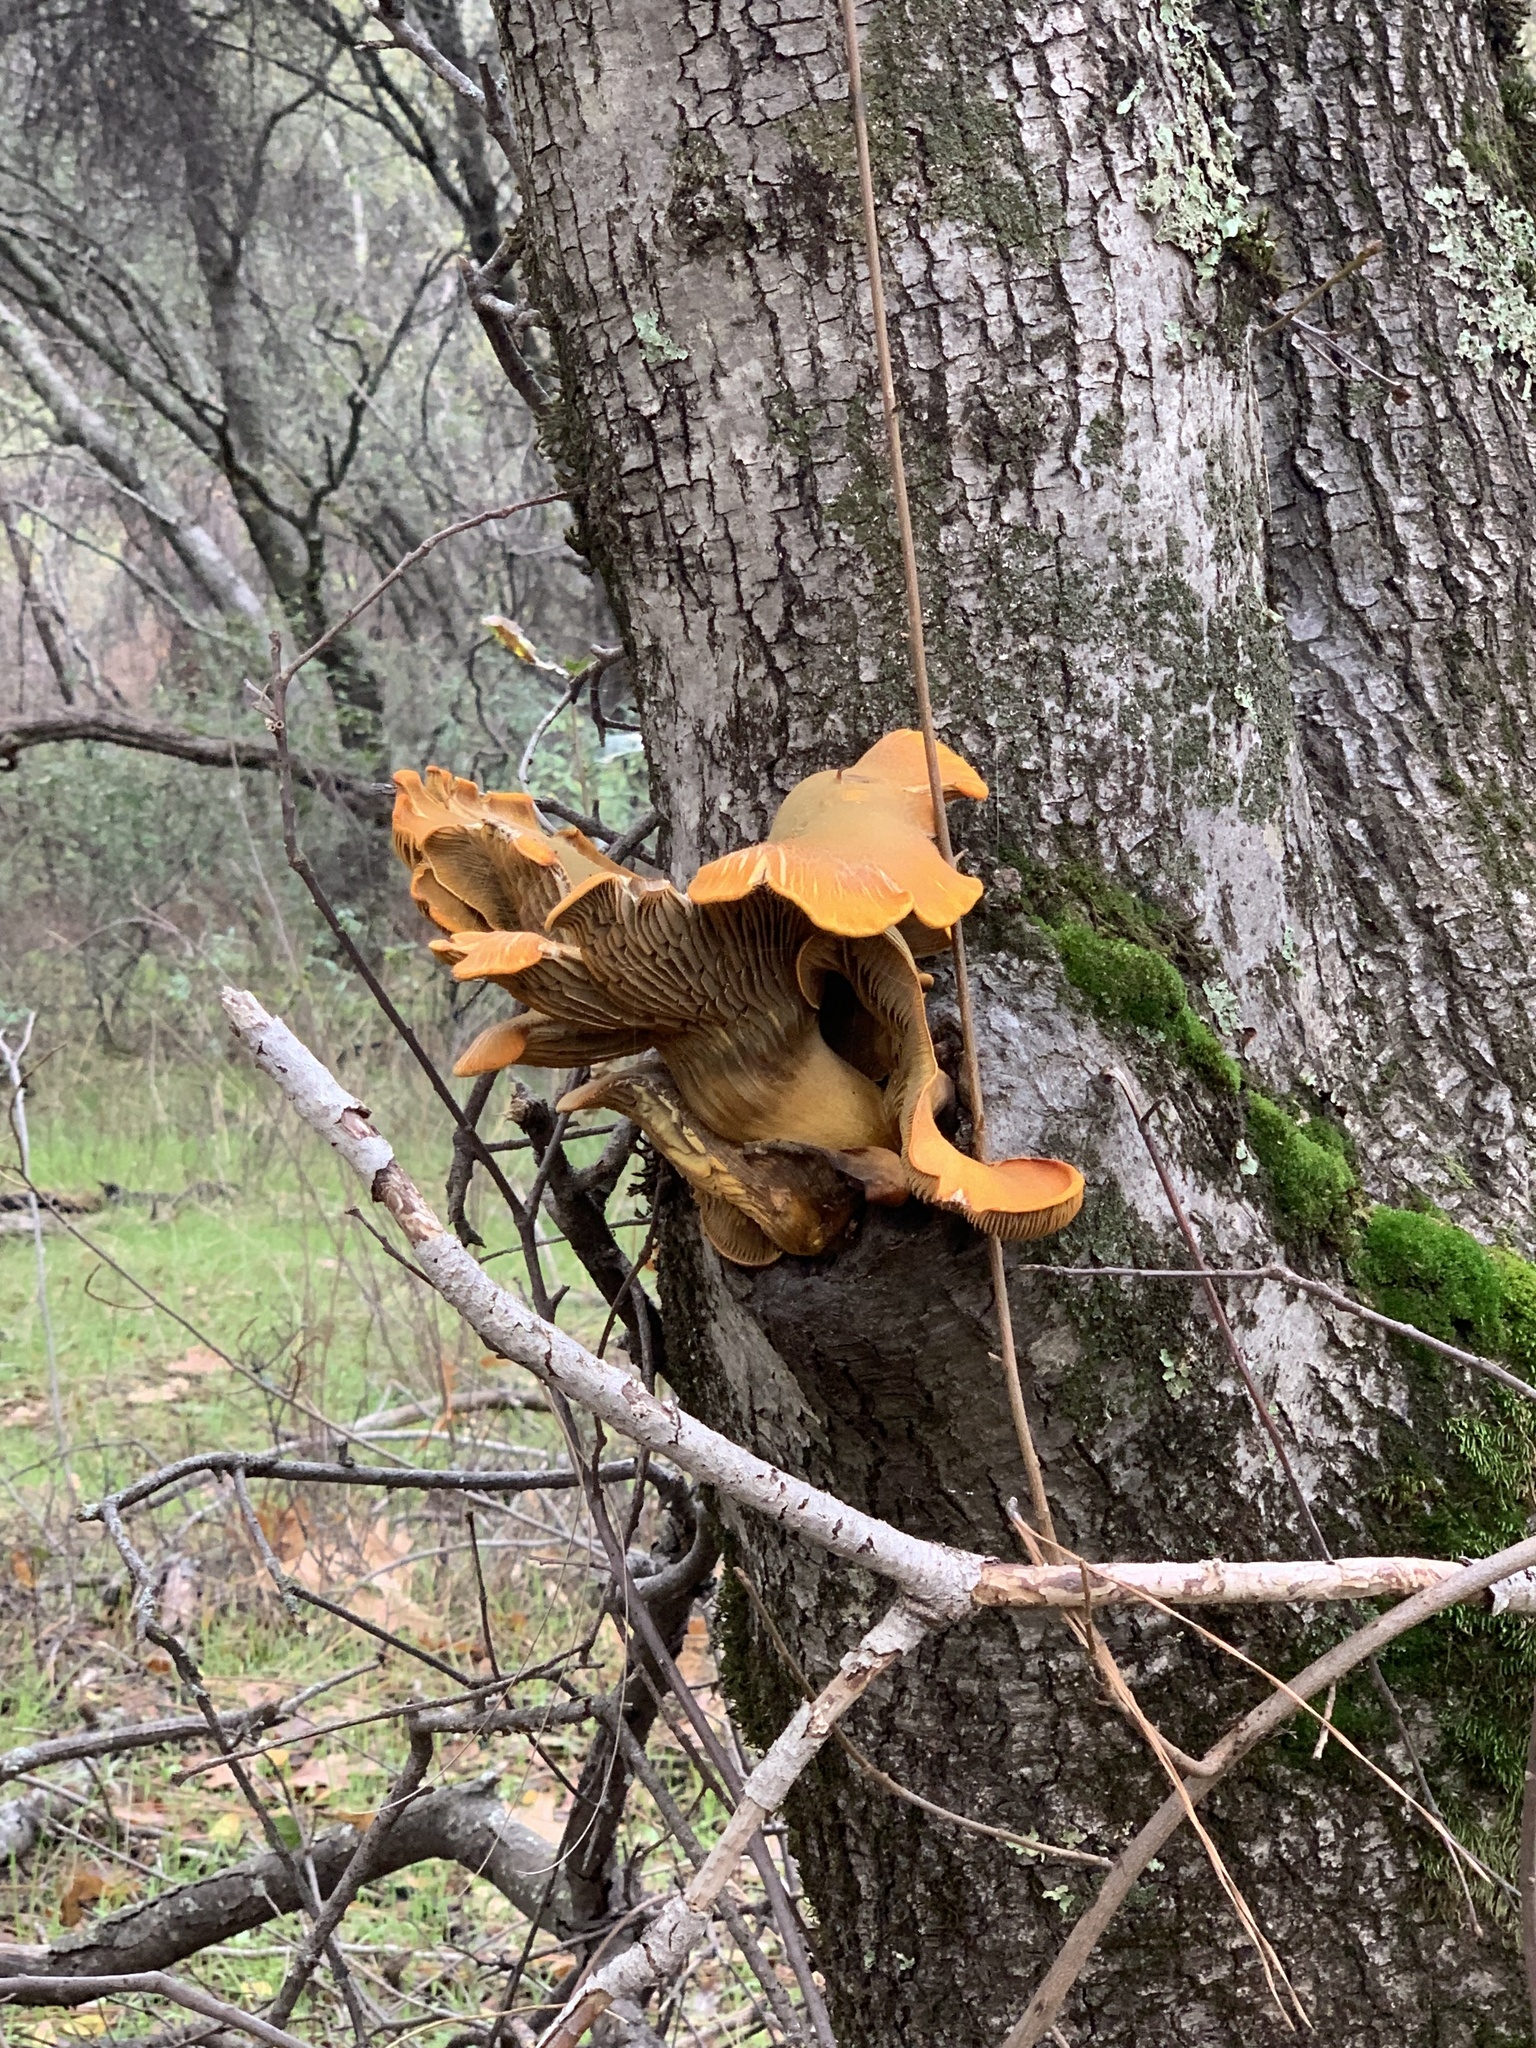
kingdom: Fungi
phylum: Basidiomycota
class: Agaricomycetes
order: Agaricales
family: Omphalotaceae
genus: Omphalotus
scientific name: Omphalotus olivascens
